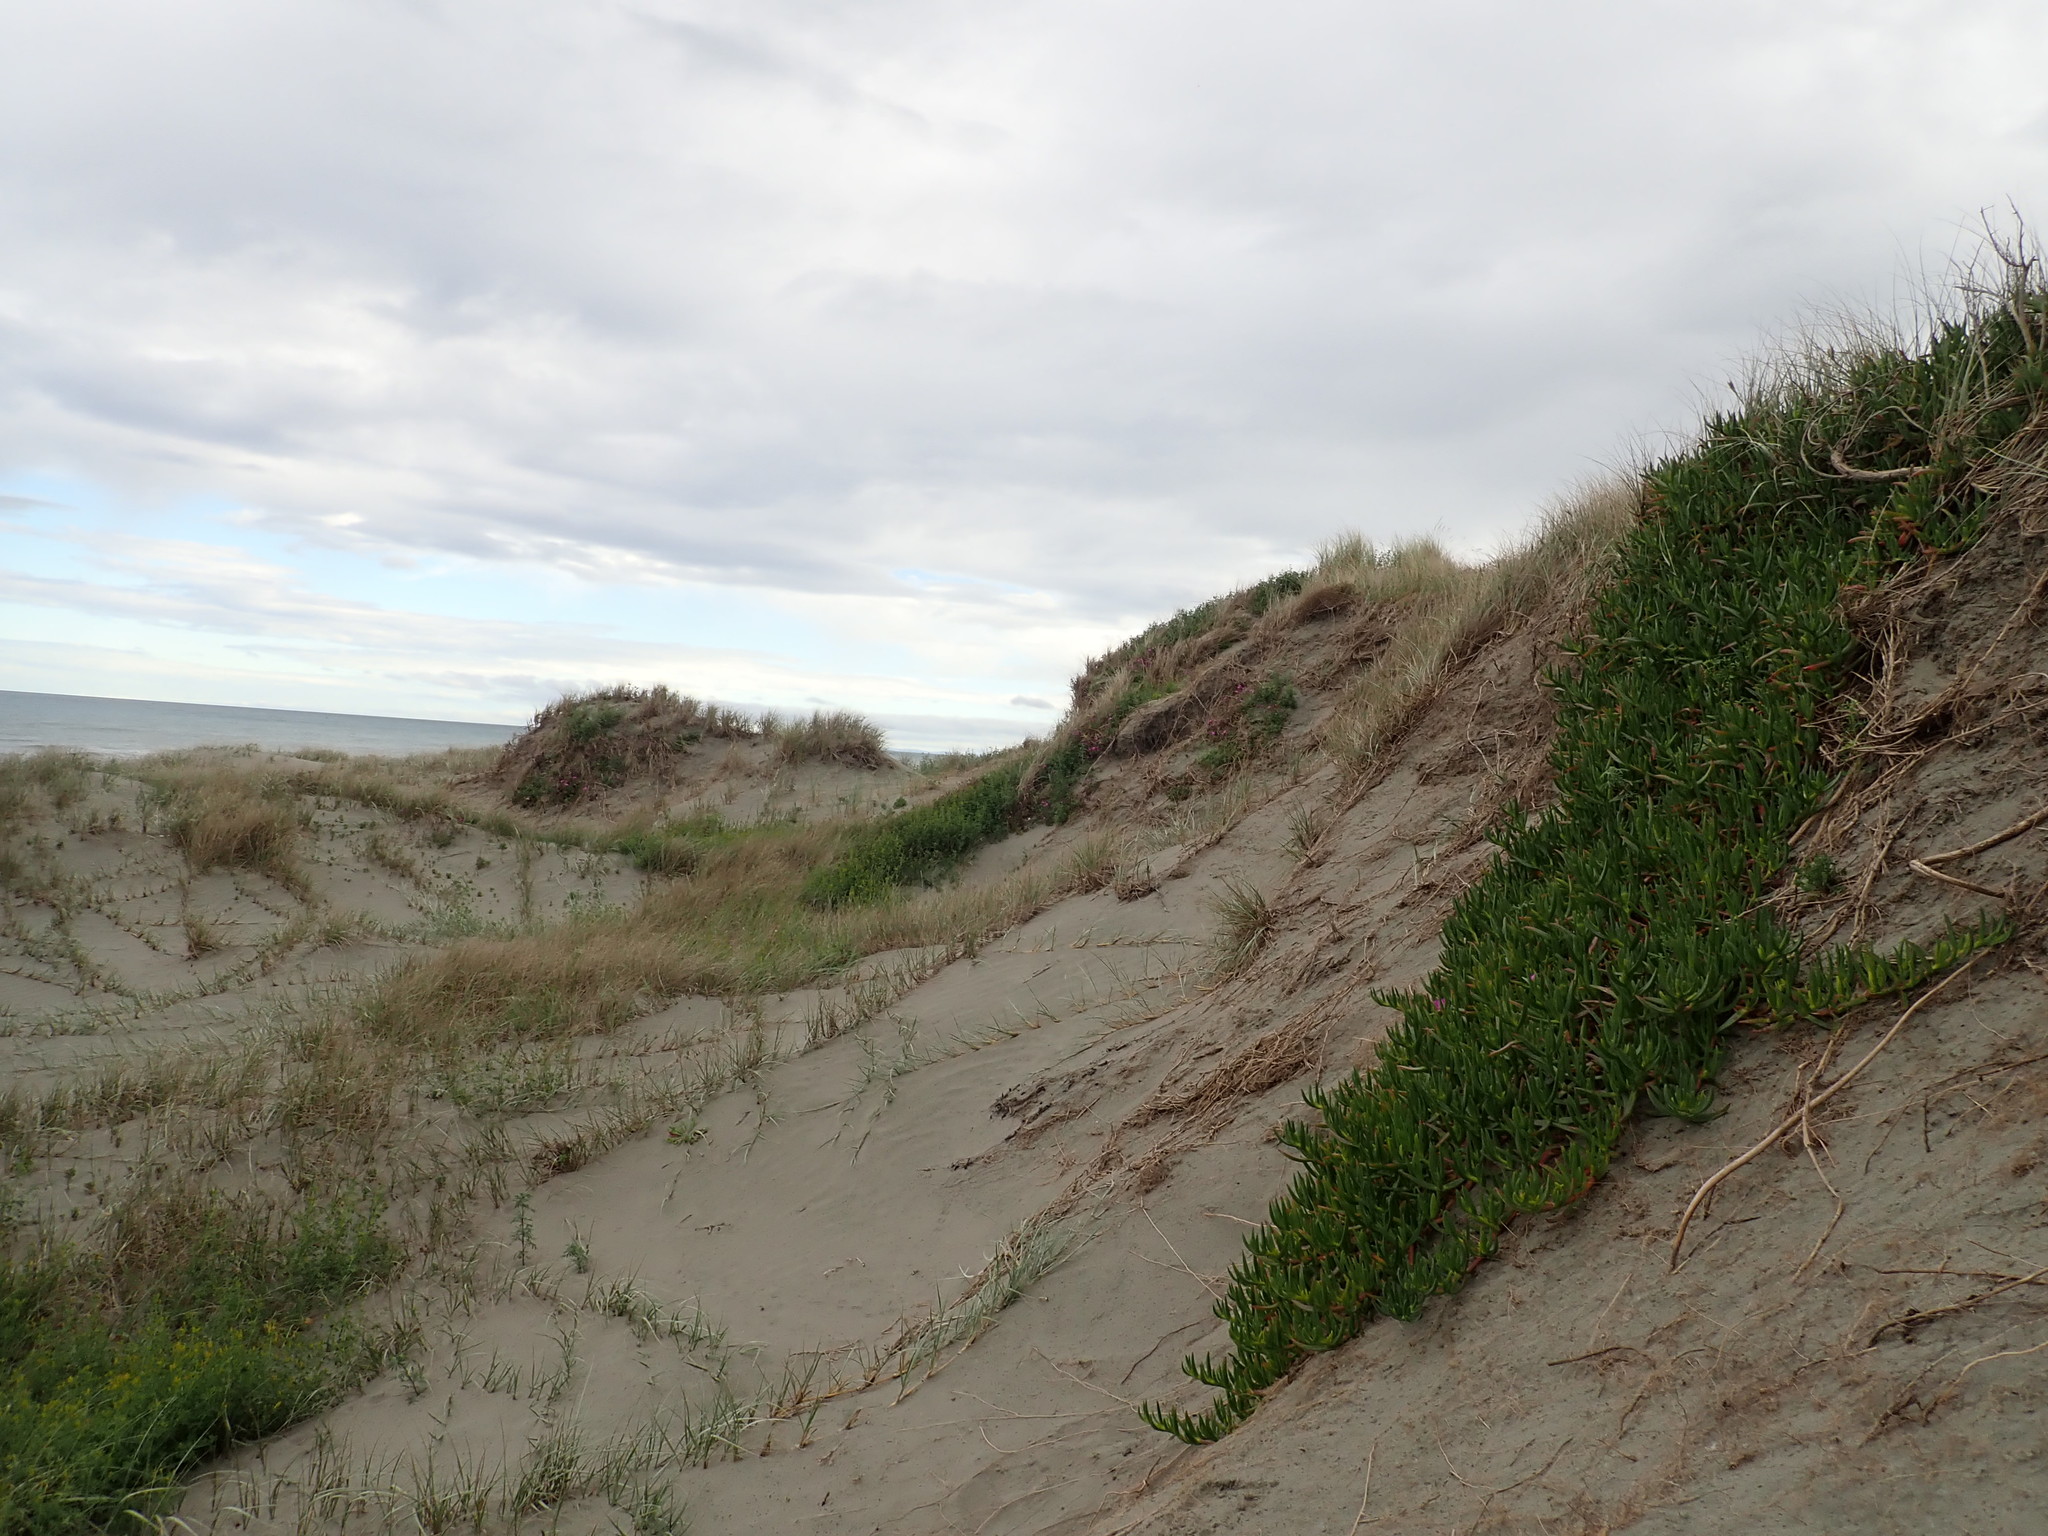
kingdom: Plantae
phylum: Tracheophyta
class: Magnoliopsida
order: Caryophyllales
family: Aizoaceae
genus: Carpobrotus
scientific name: Carpobrotus chilensis
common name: Sea fig
